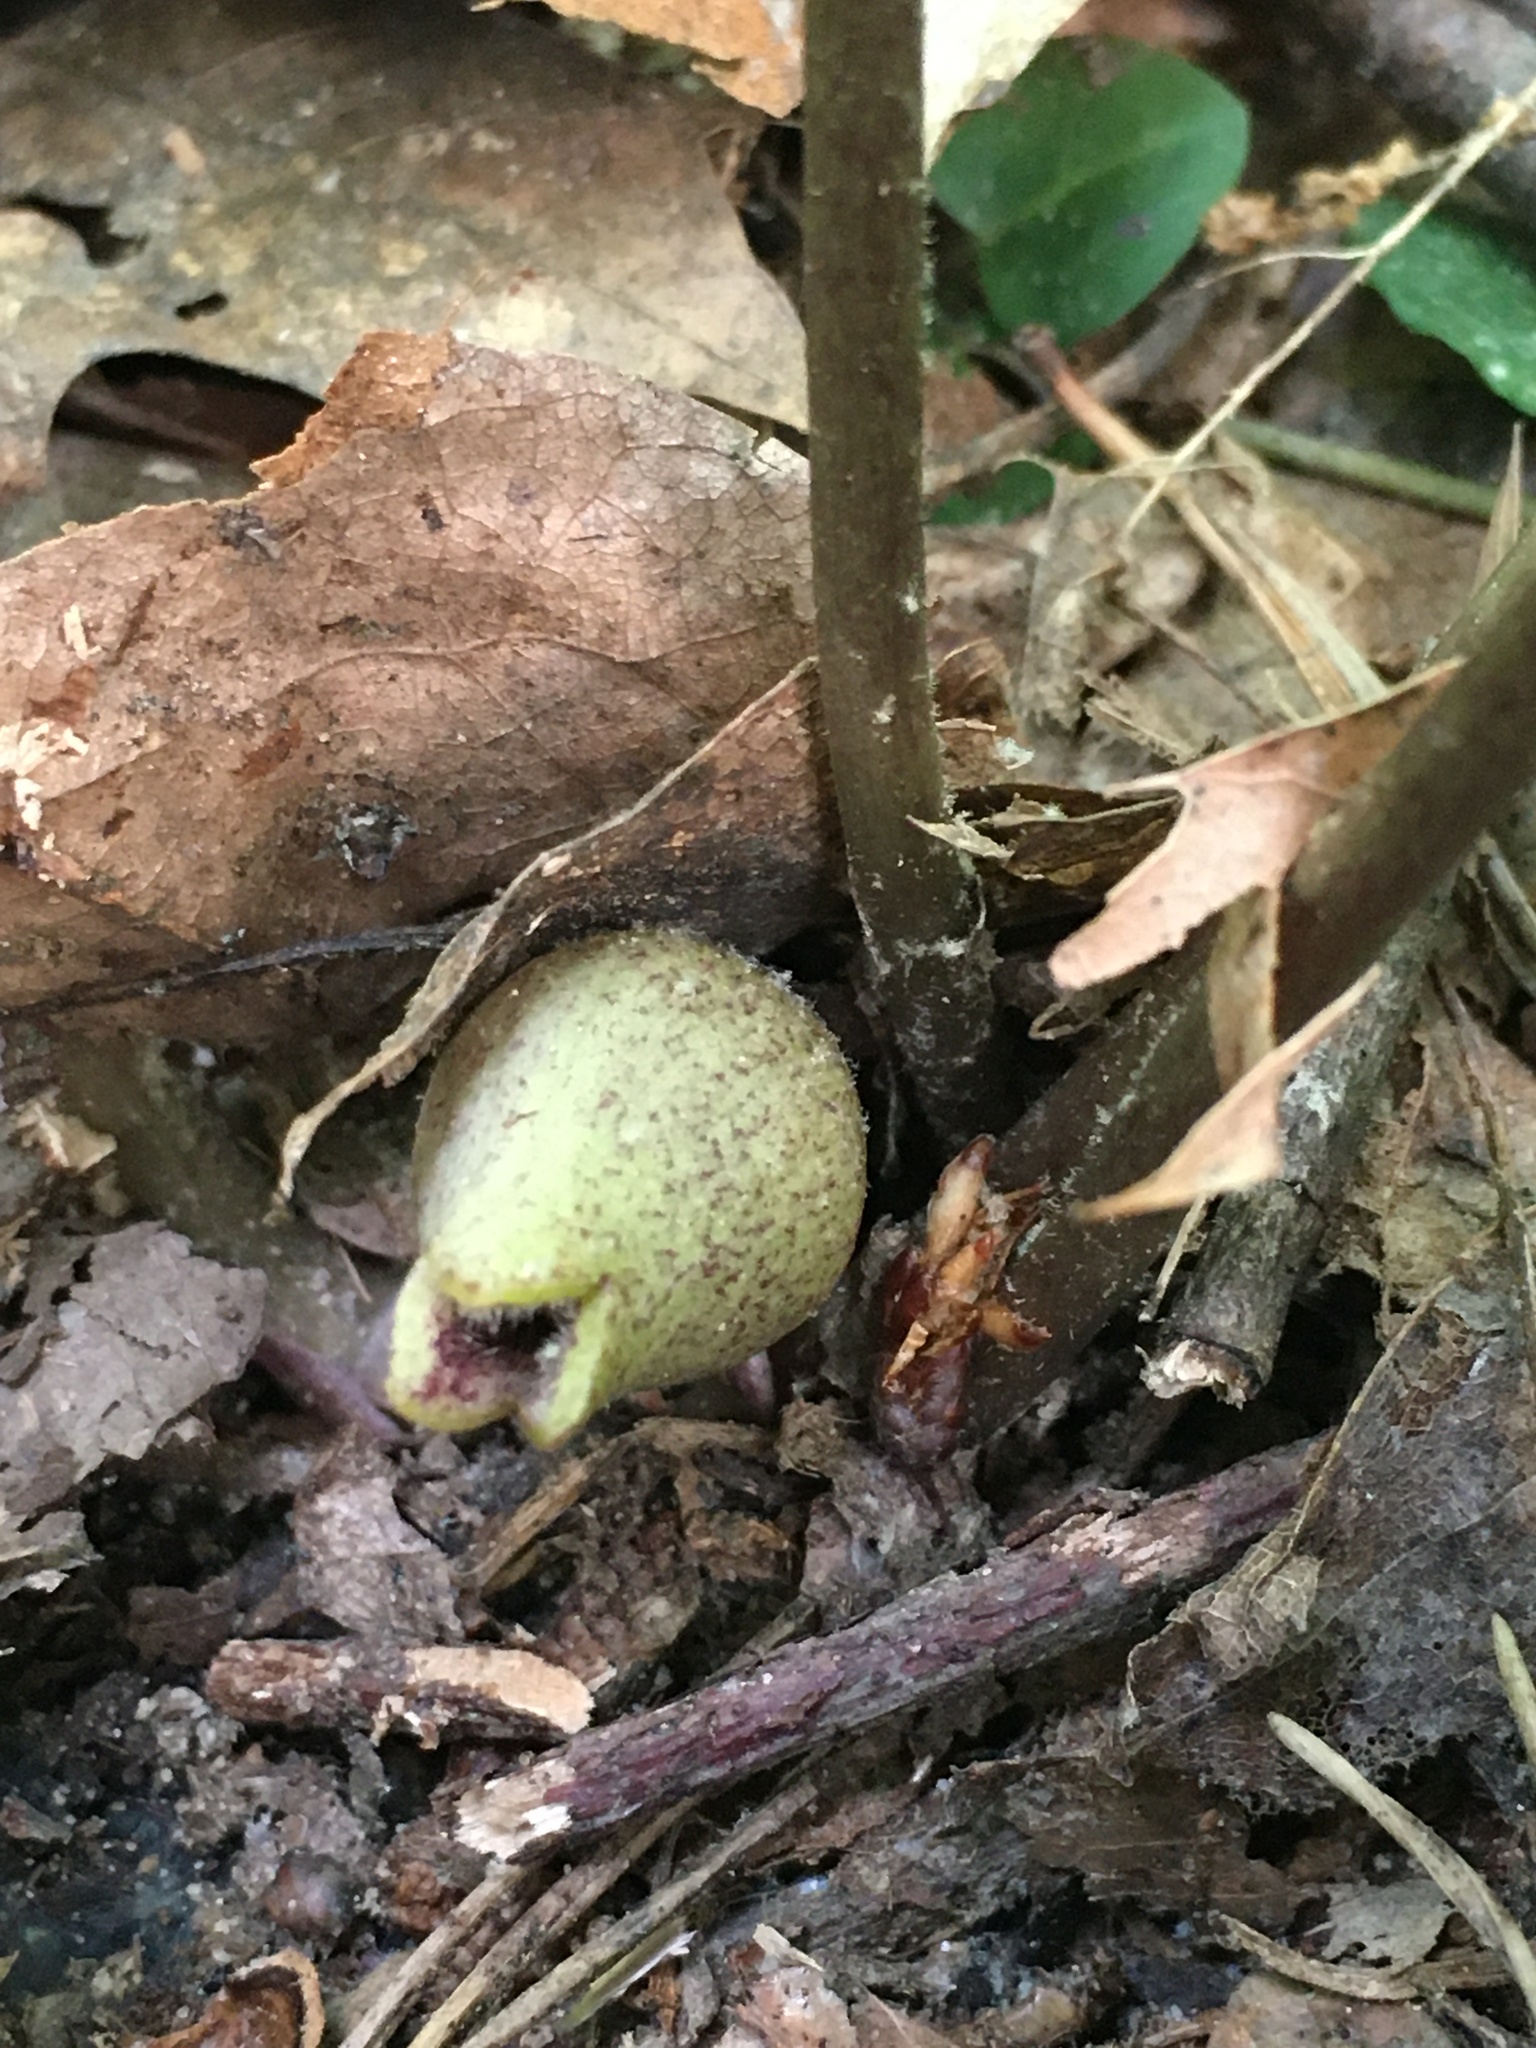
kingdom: Plantae
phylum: Tracheophyta
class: Magnoliopsida
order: Piperales
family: Aristolochiaceae
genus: Hexastylis
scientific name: Hexastylis arifolia
